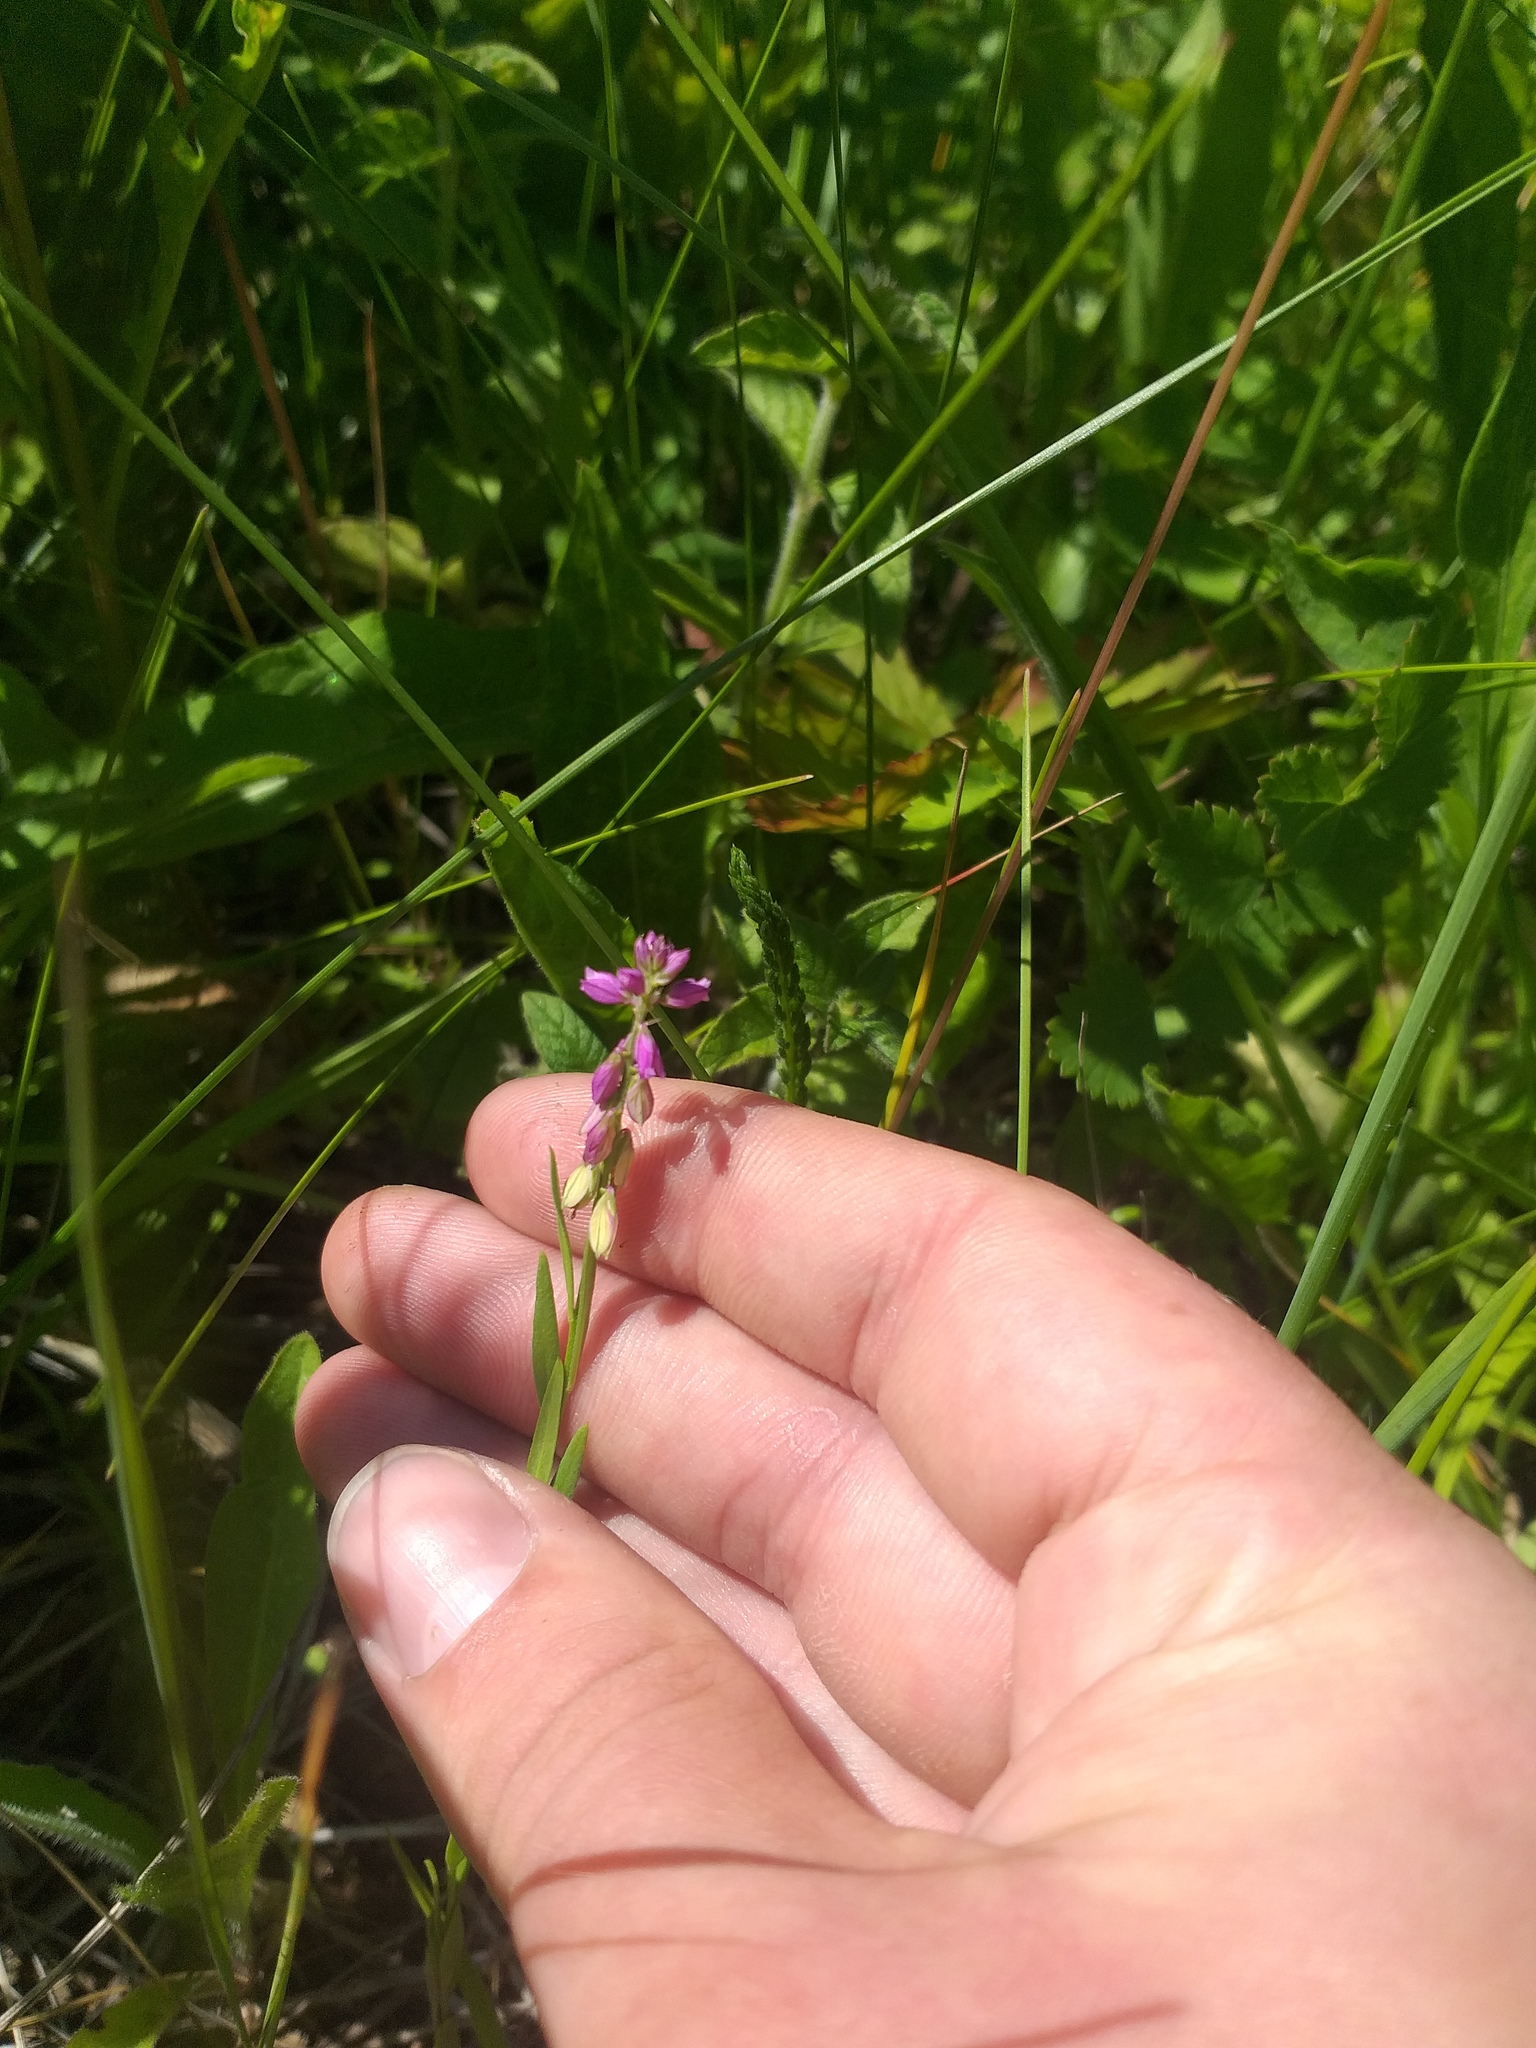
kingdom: Plantae
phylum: Tracheophyta
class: Magnoliopsida
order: Fabales
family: Polygalaceae
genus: Polygala
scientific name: Polygala comosa
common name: Tufted milkwort
